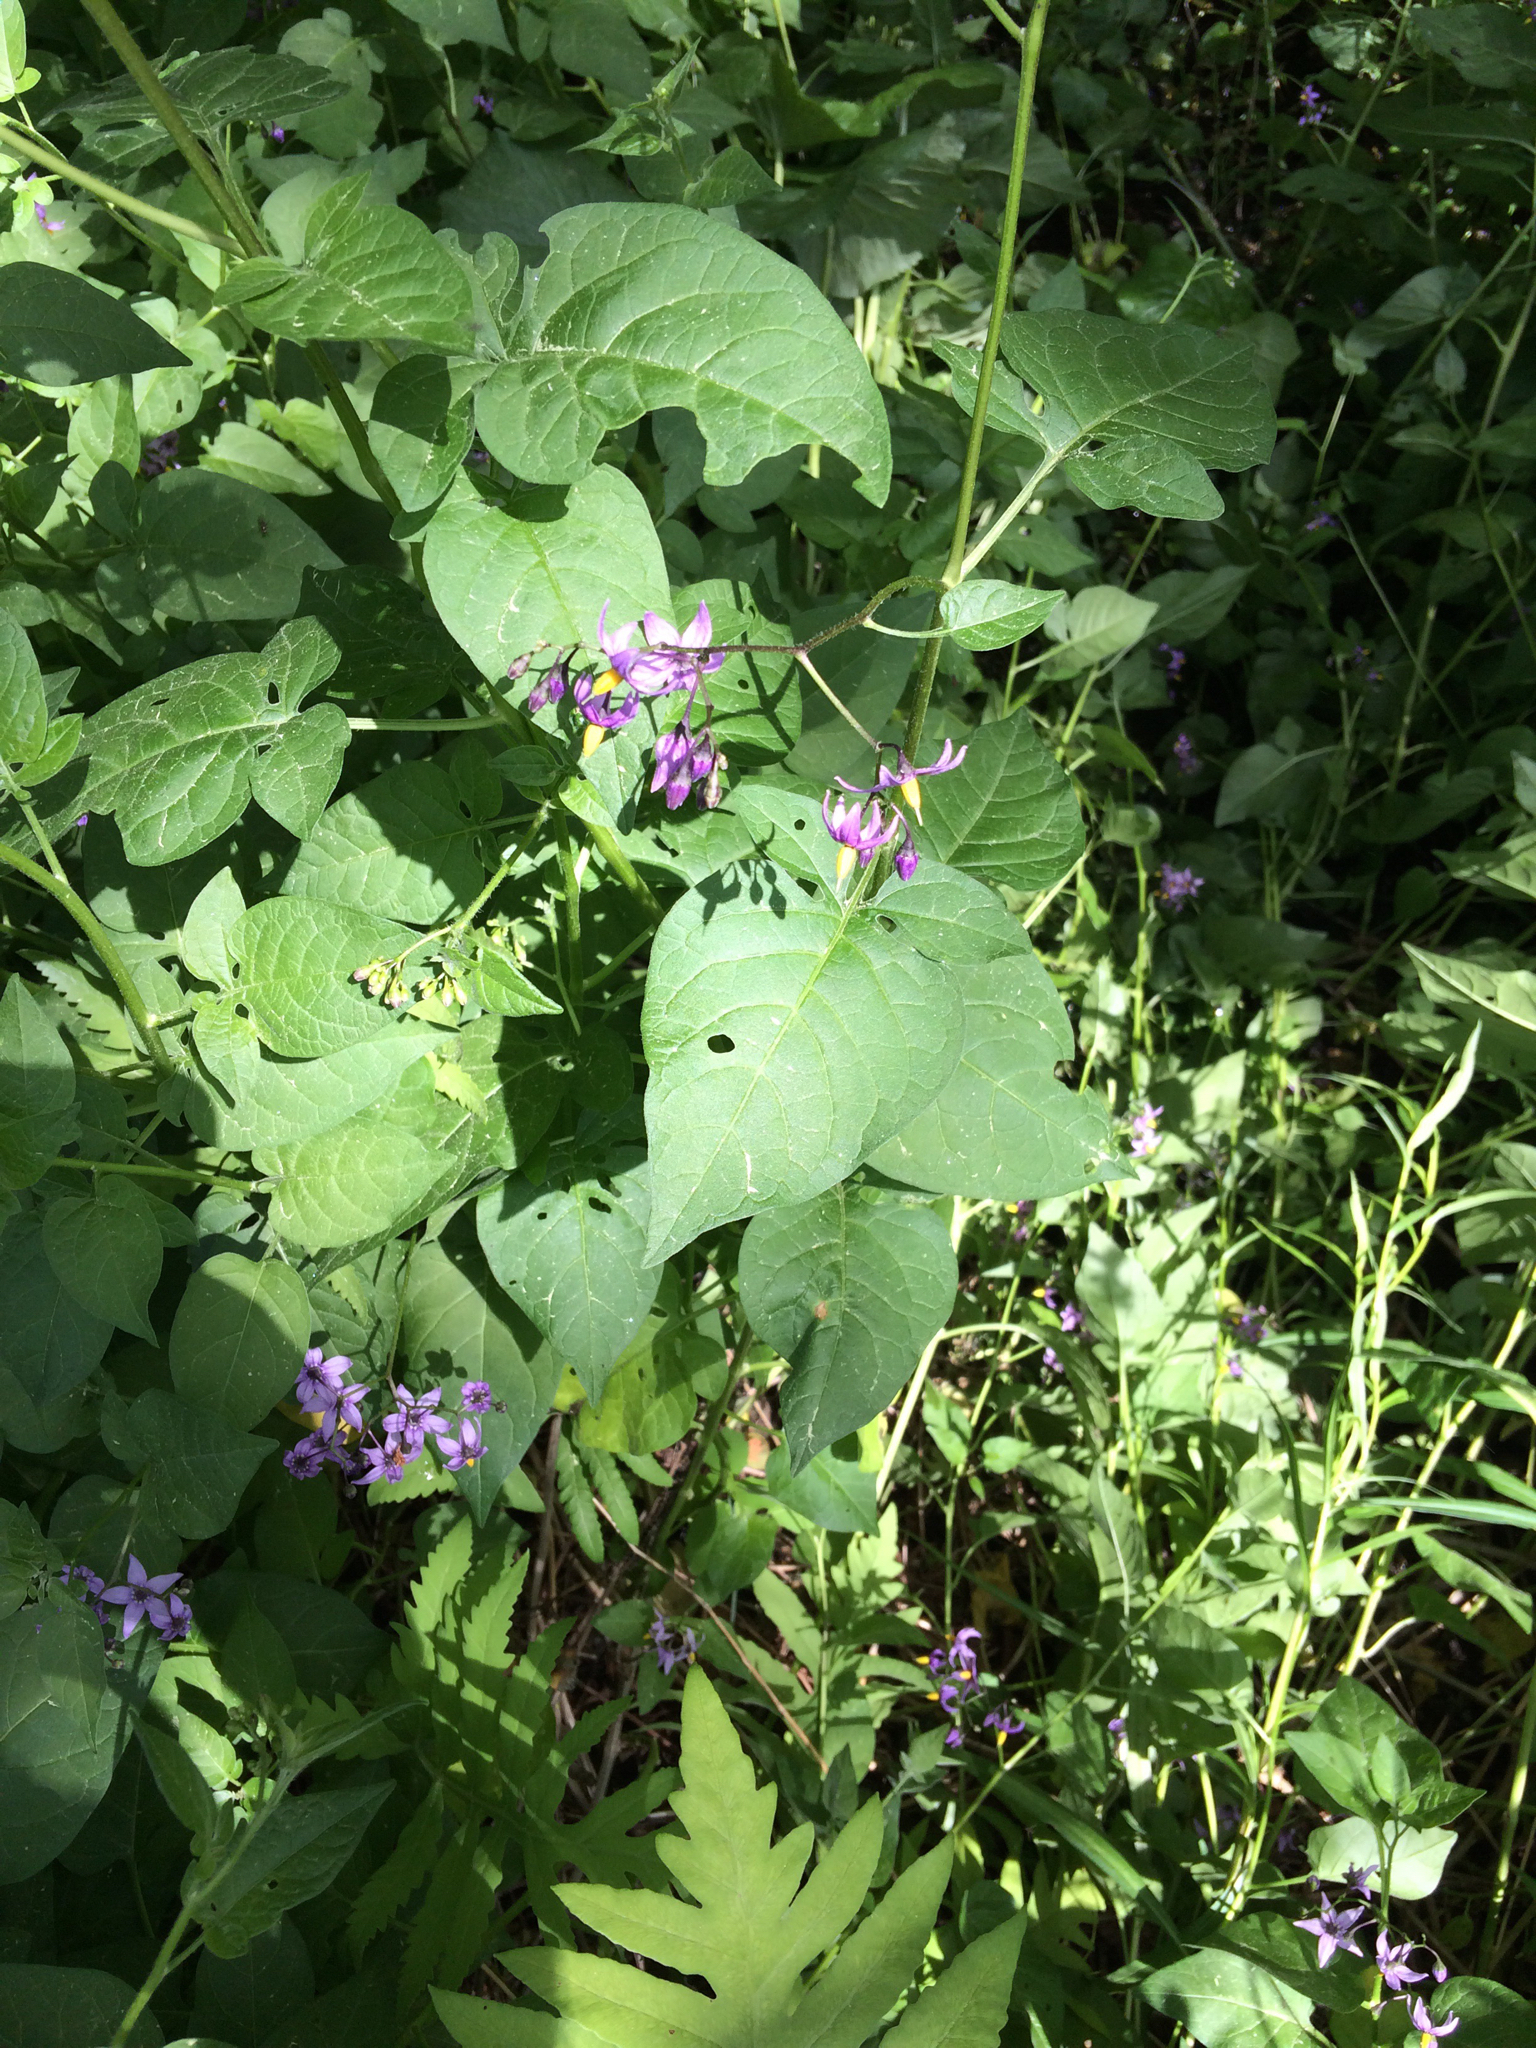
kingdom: Plantae
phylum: Tracheophyta
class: Magnoliopsida
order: Solanales
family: Solanaceae
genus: Solanum
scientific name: Solanum dulcamara
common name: Climbing nightshade
